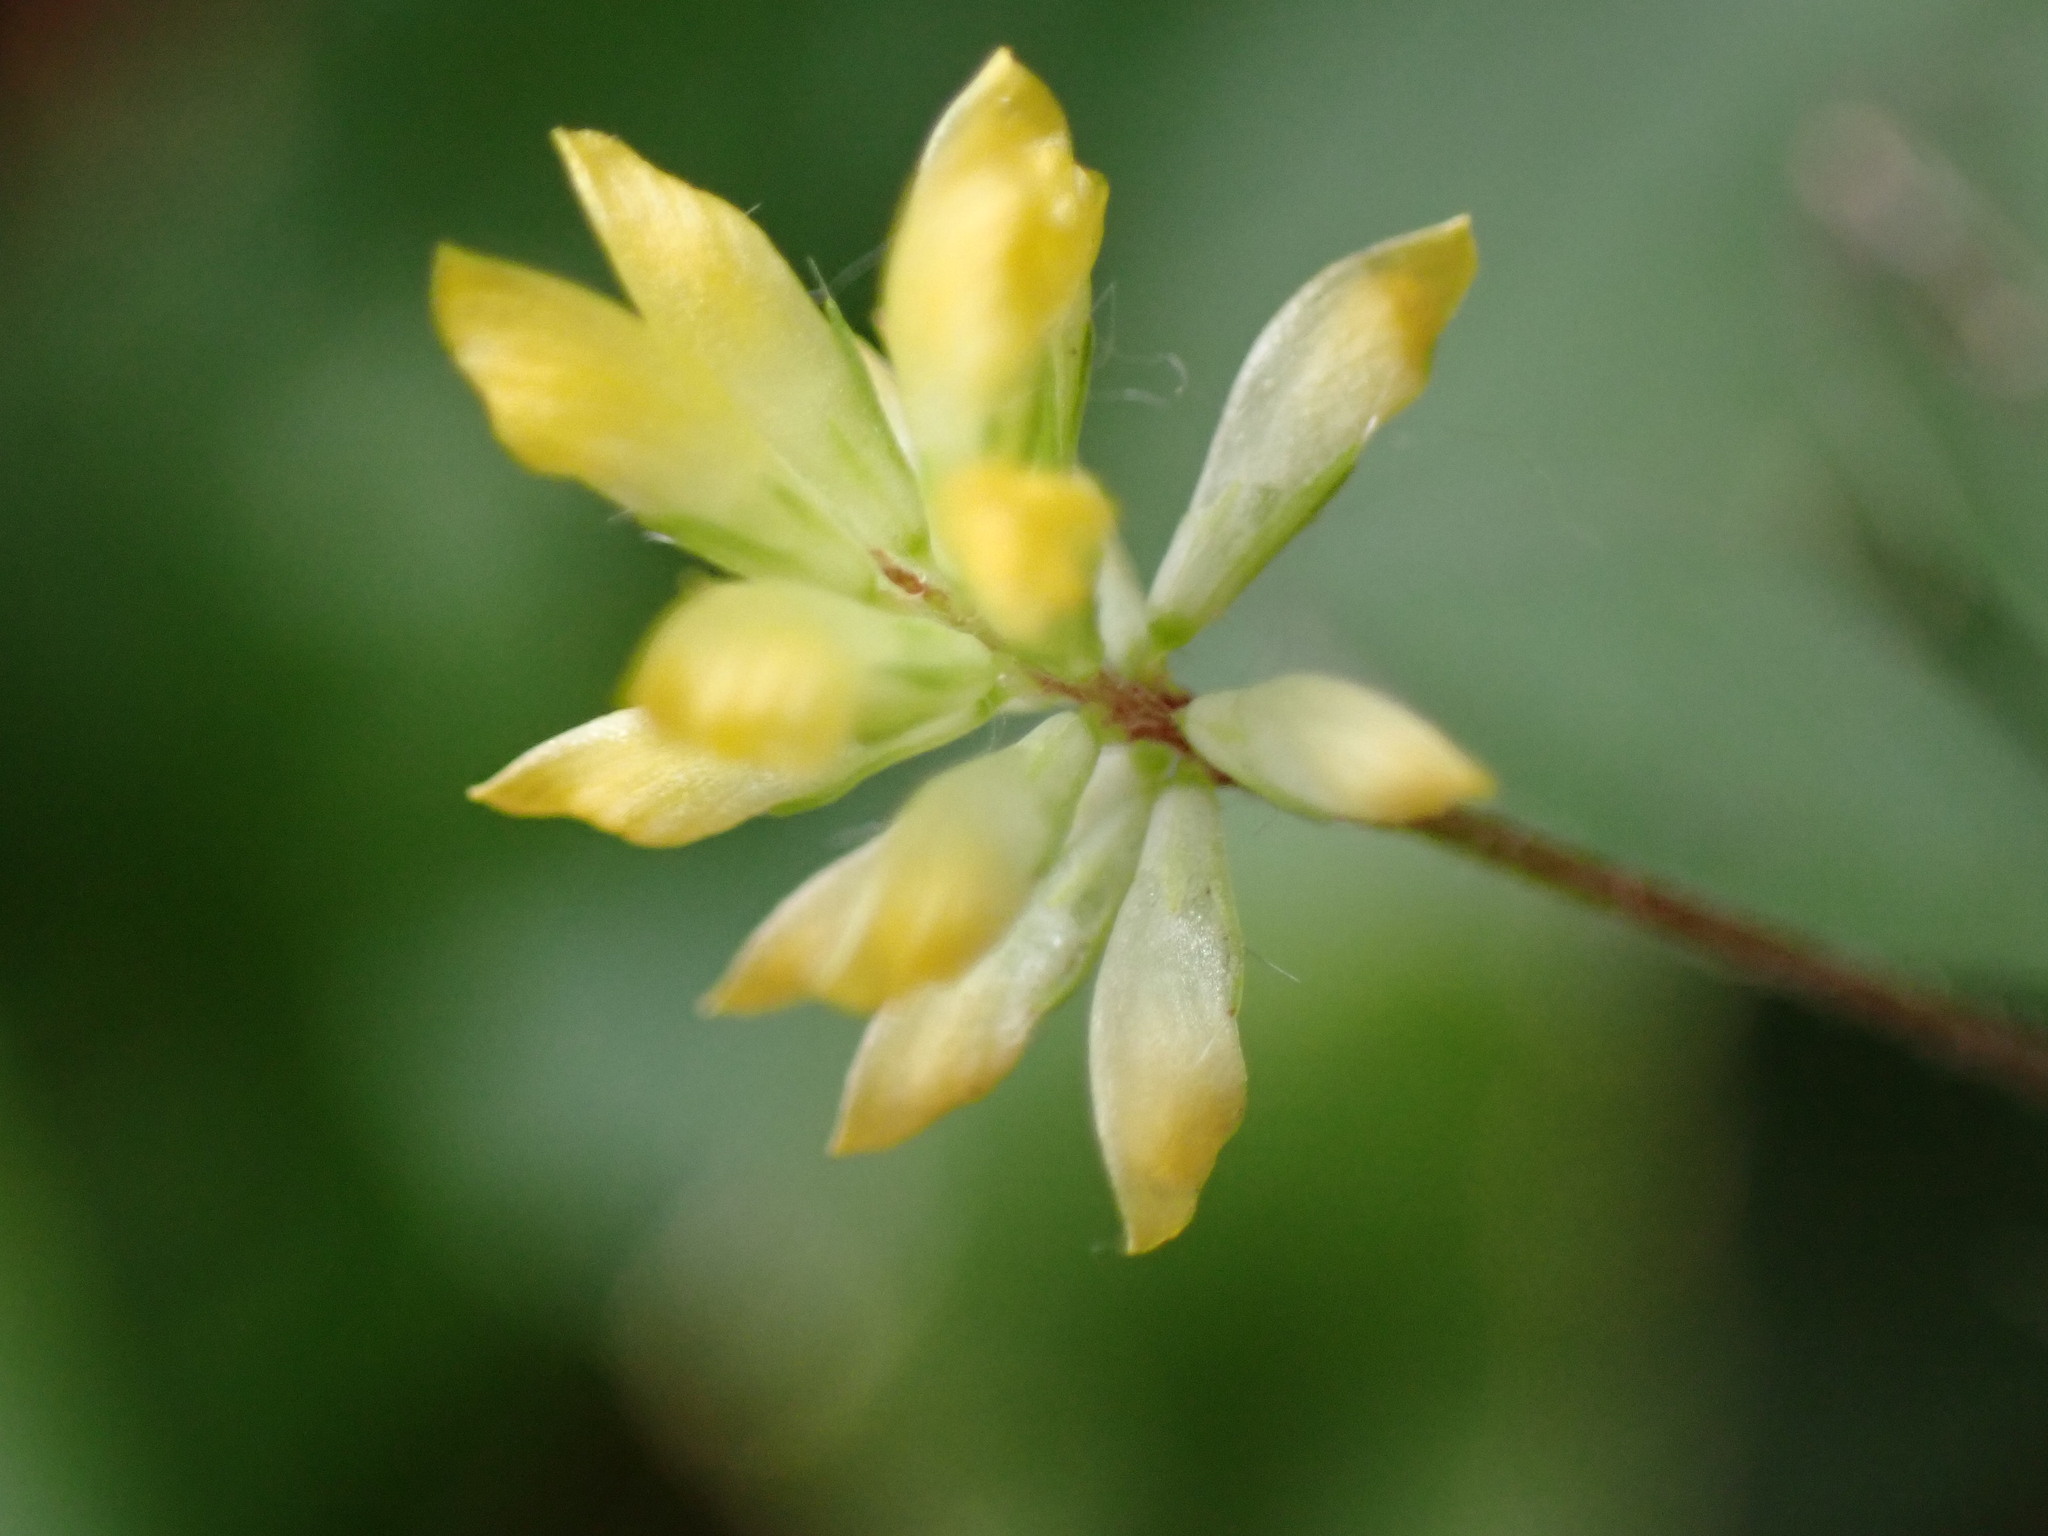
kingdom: Plantae
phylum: Tracheophyta
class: Magnoliopsida
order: Fabales
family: Fabaceae
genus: Trifolium
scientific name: Trifolium dubium
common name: Suckling clover
